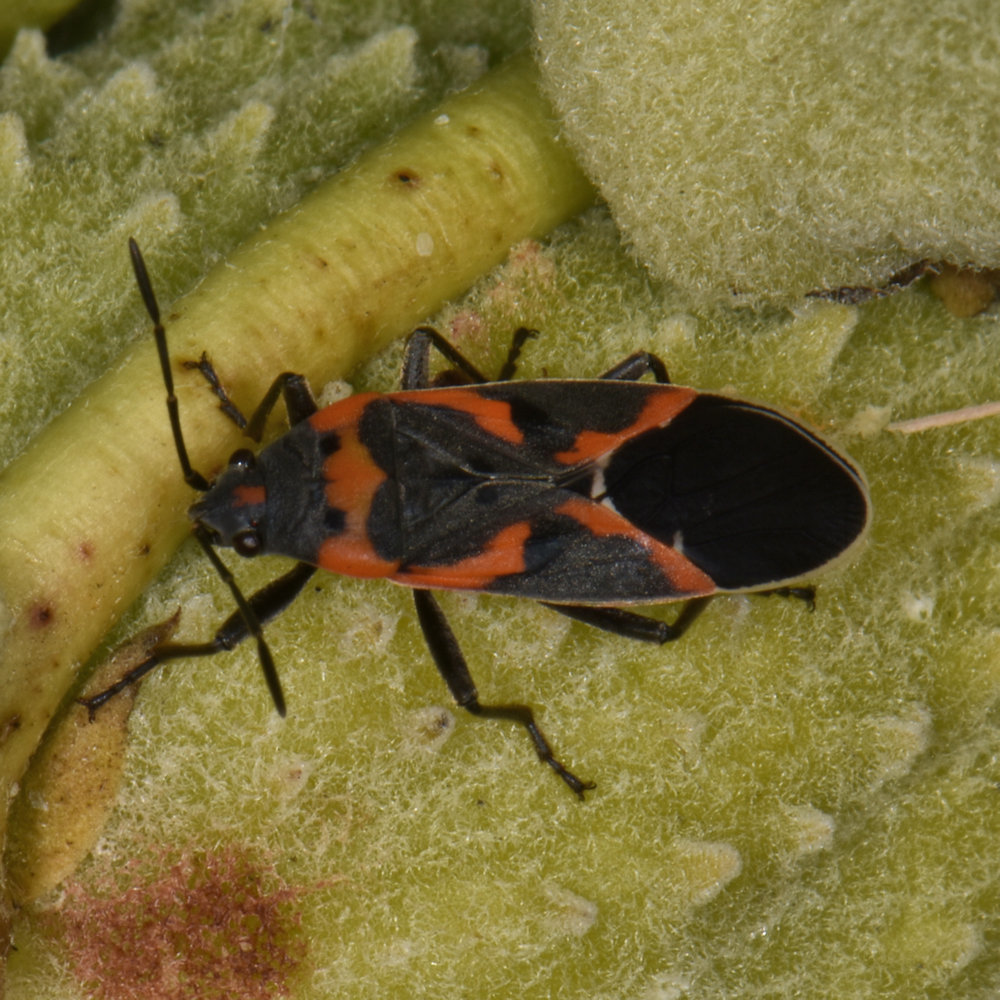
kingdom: Animalia
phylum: Arthropoda
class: Insecta
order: Hemiptera
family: Lygaeidae
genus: Lygaeus
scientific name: Lygaeus kalmii
